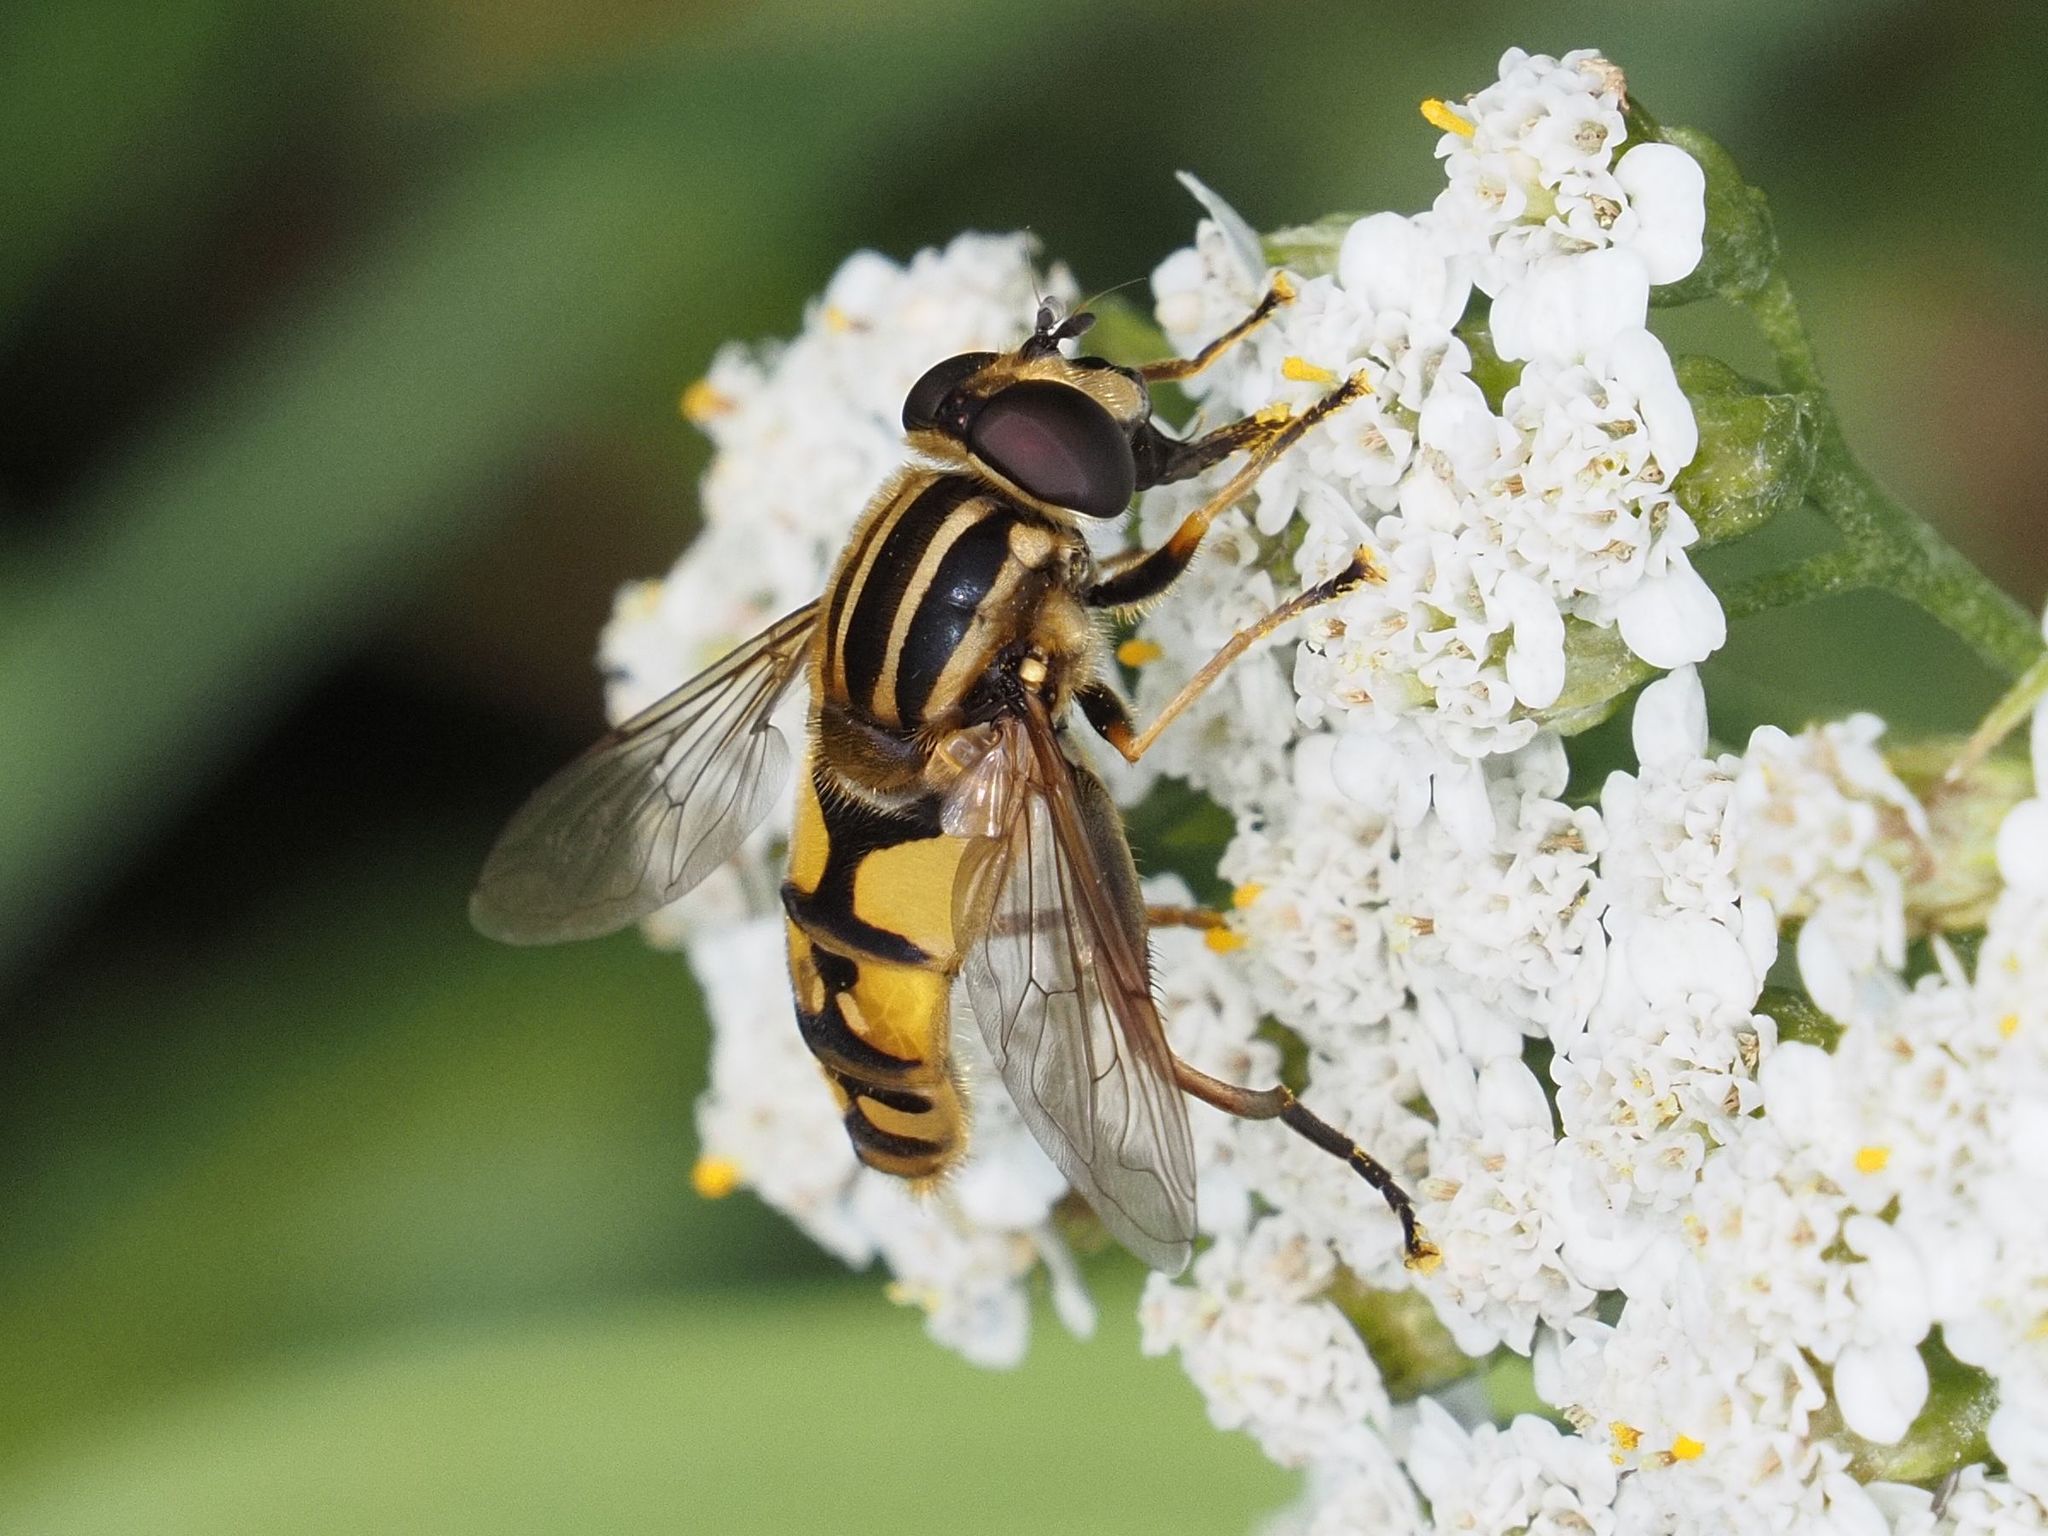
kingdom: Animalia
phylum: Arthropoda
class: Insecta
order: Diptera
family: Syrphidae
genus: Helophilus
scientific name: Helophilus pendulus
